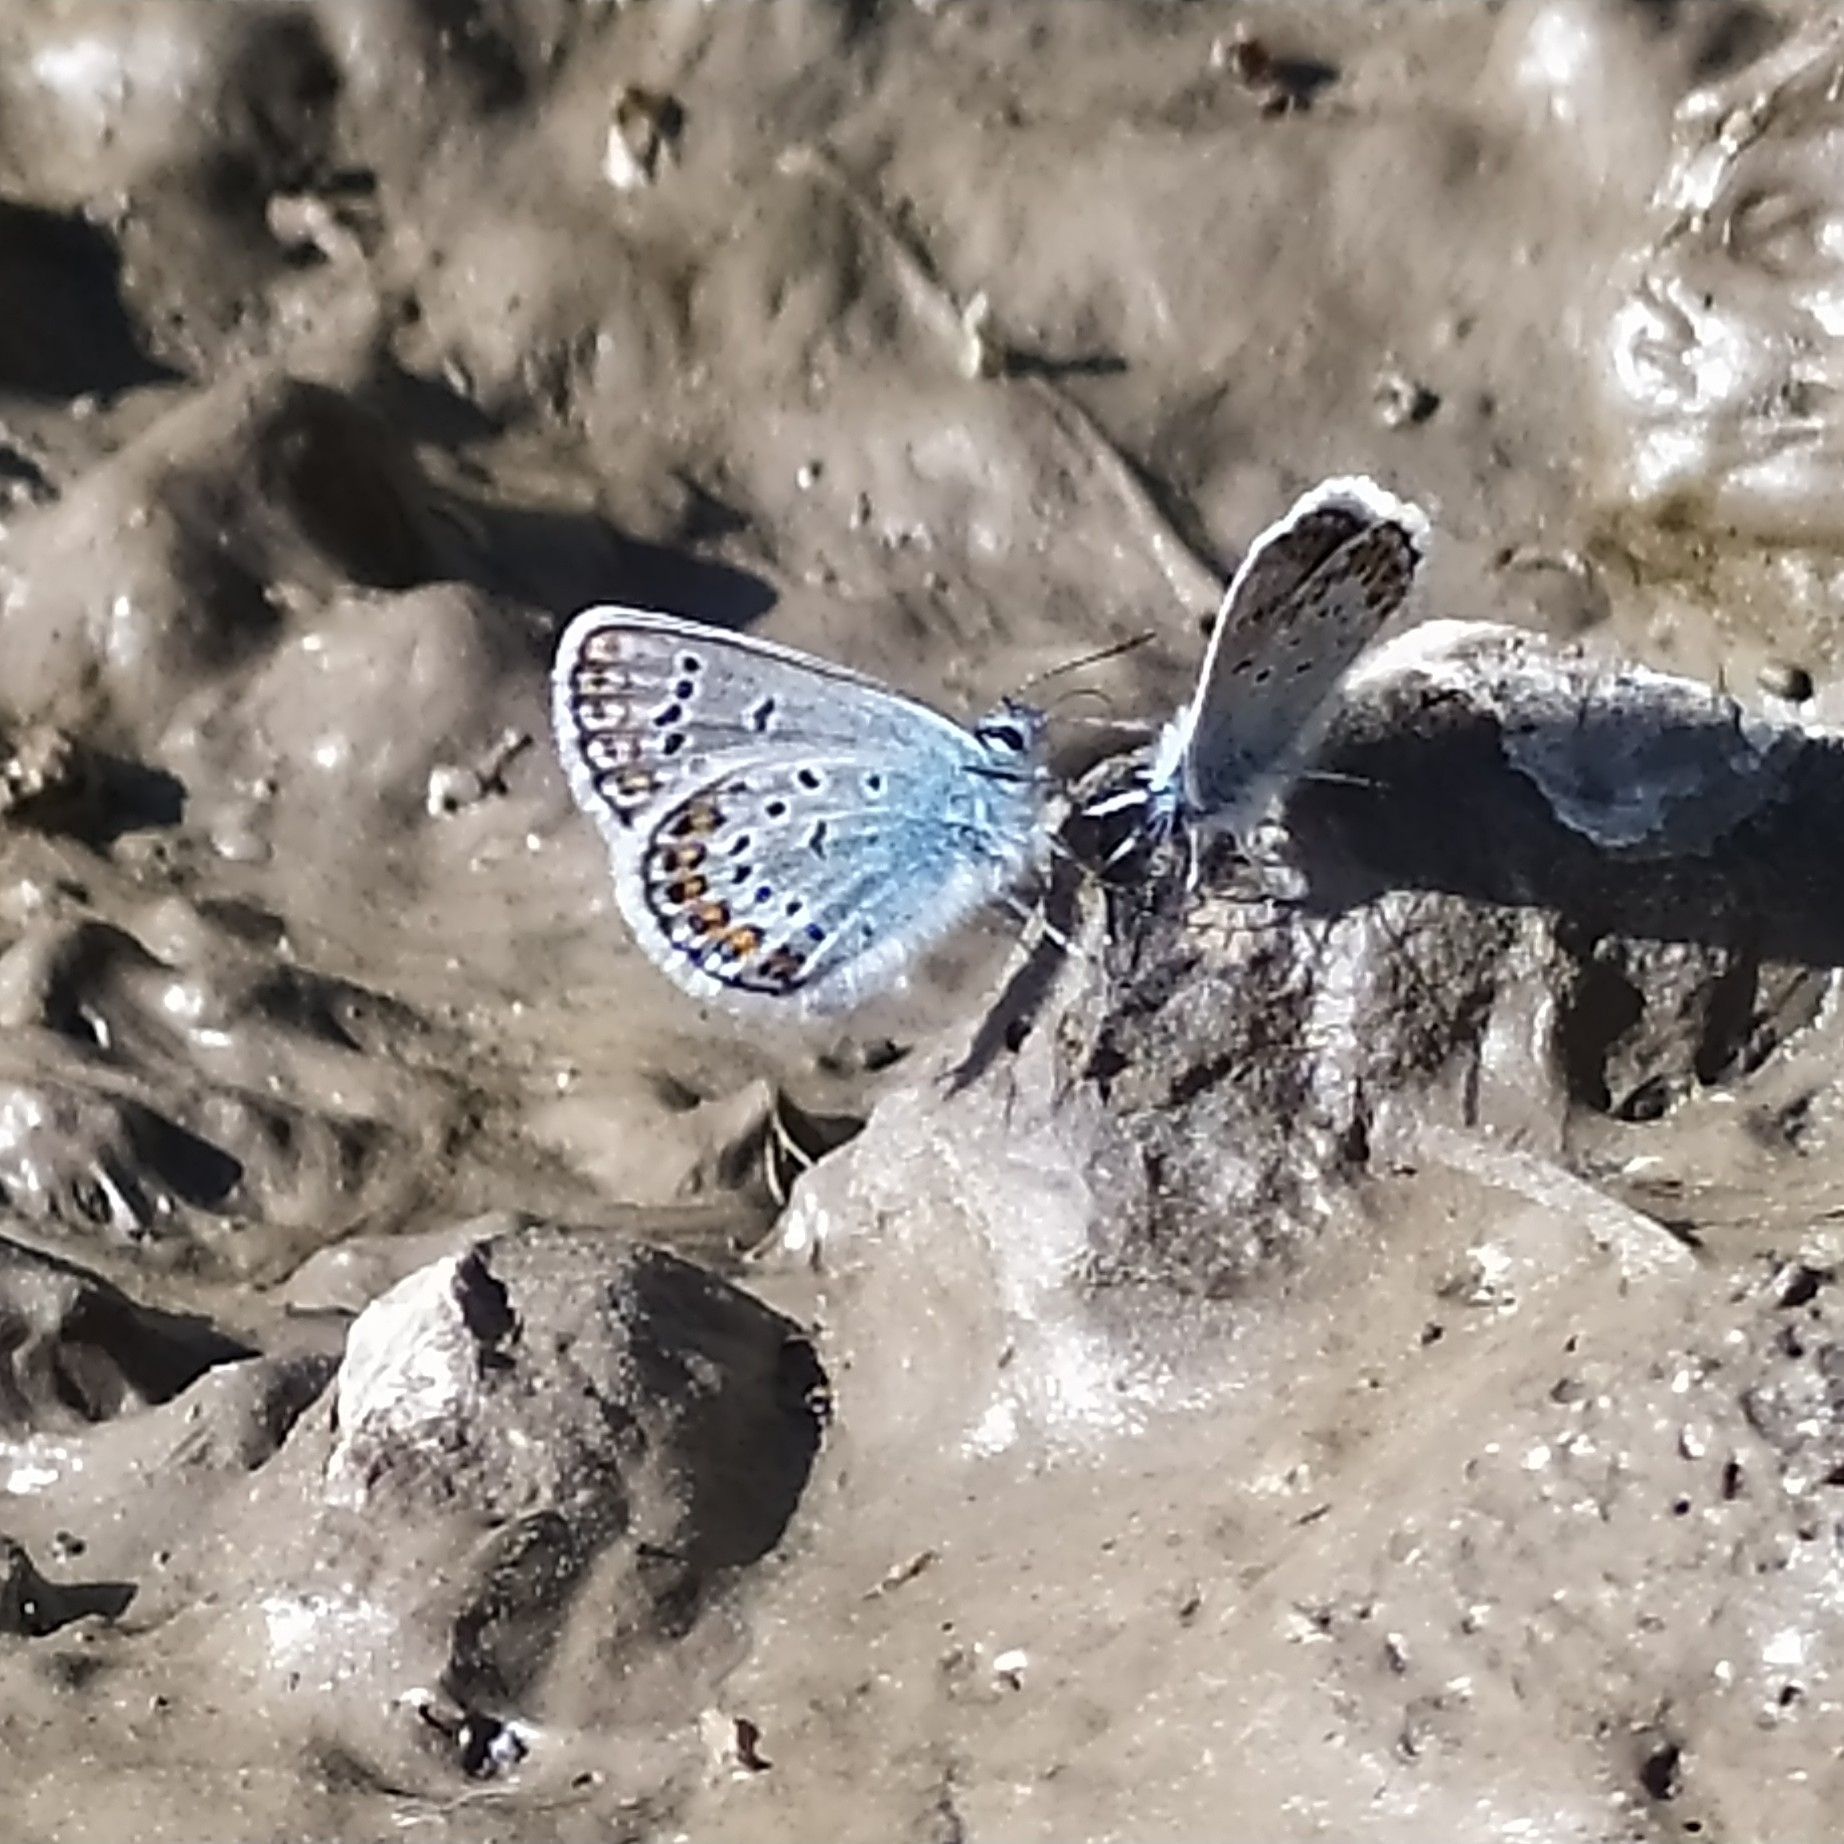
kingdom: Animalia
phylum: Arthropoda
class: Insecta
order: Lepidoptera
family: Lycaenidae
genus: Plebejus
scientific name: Plebejus argus
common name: Silver-studded blue
